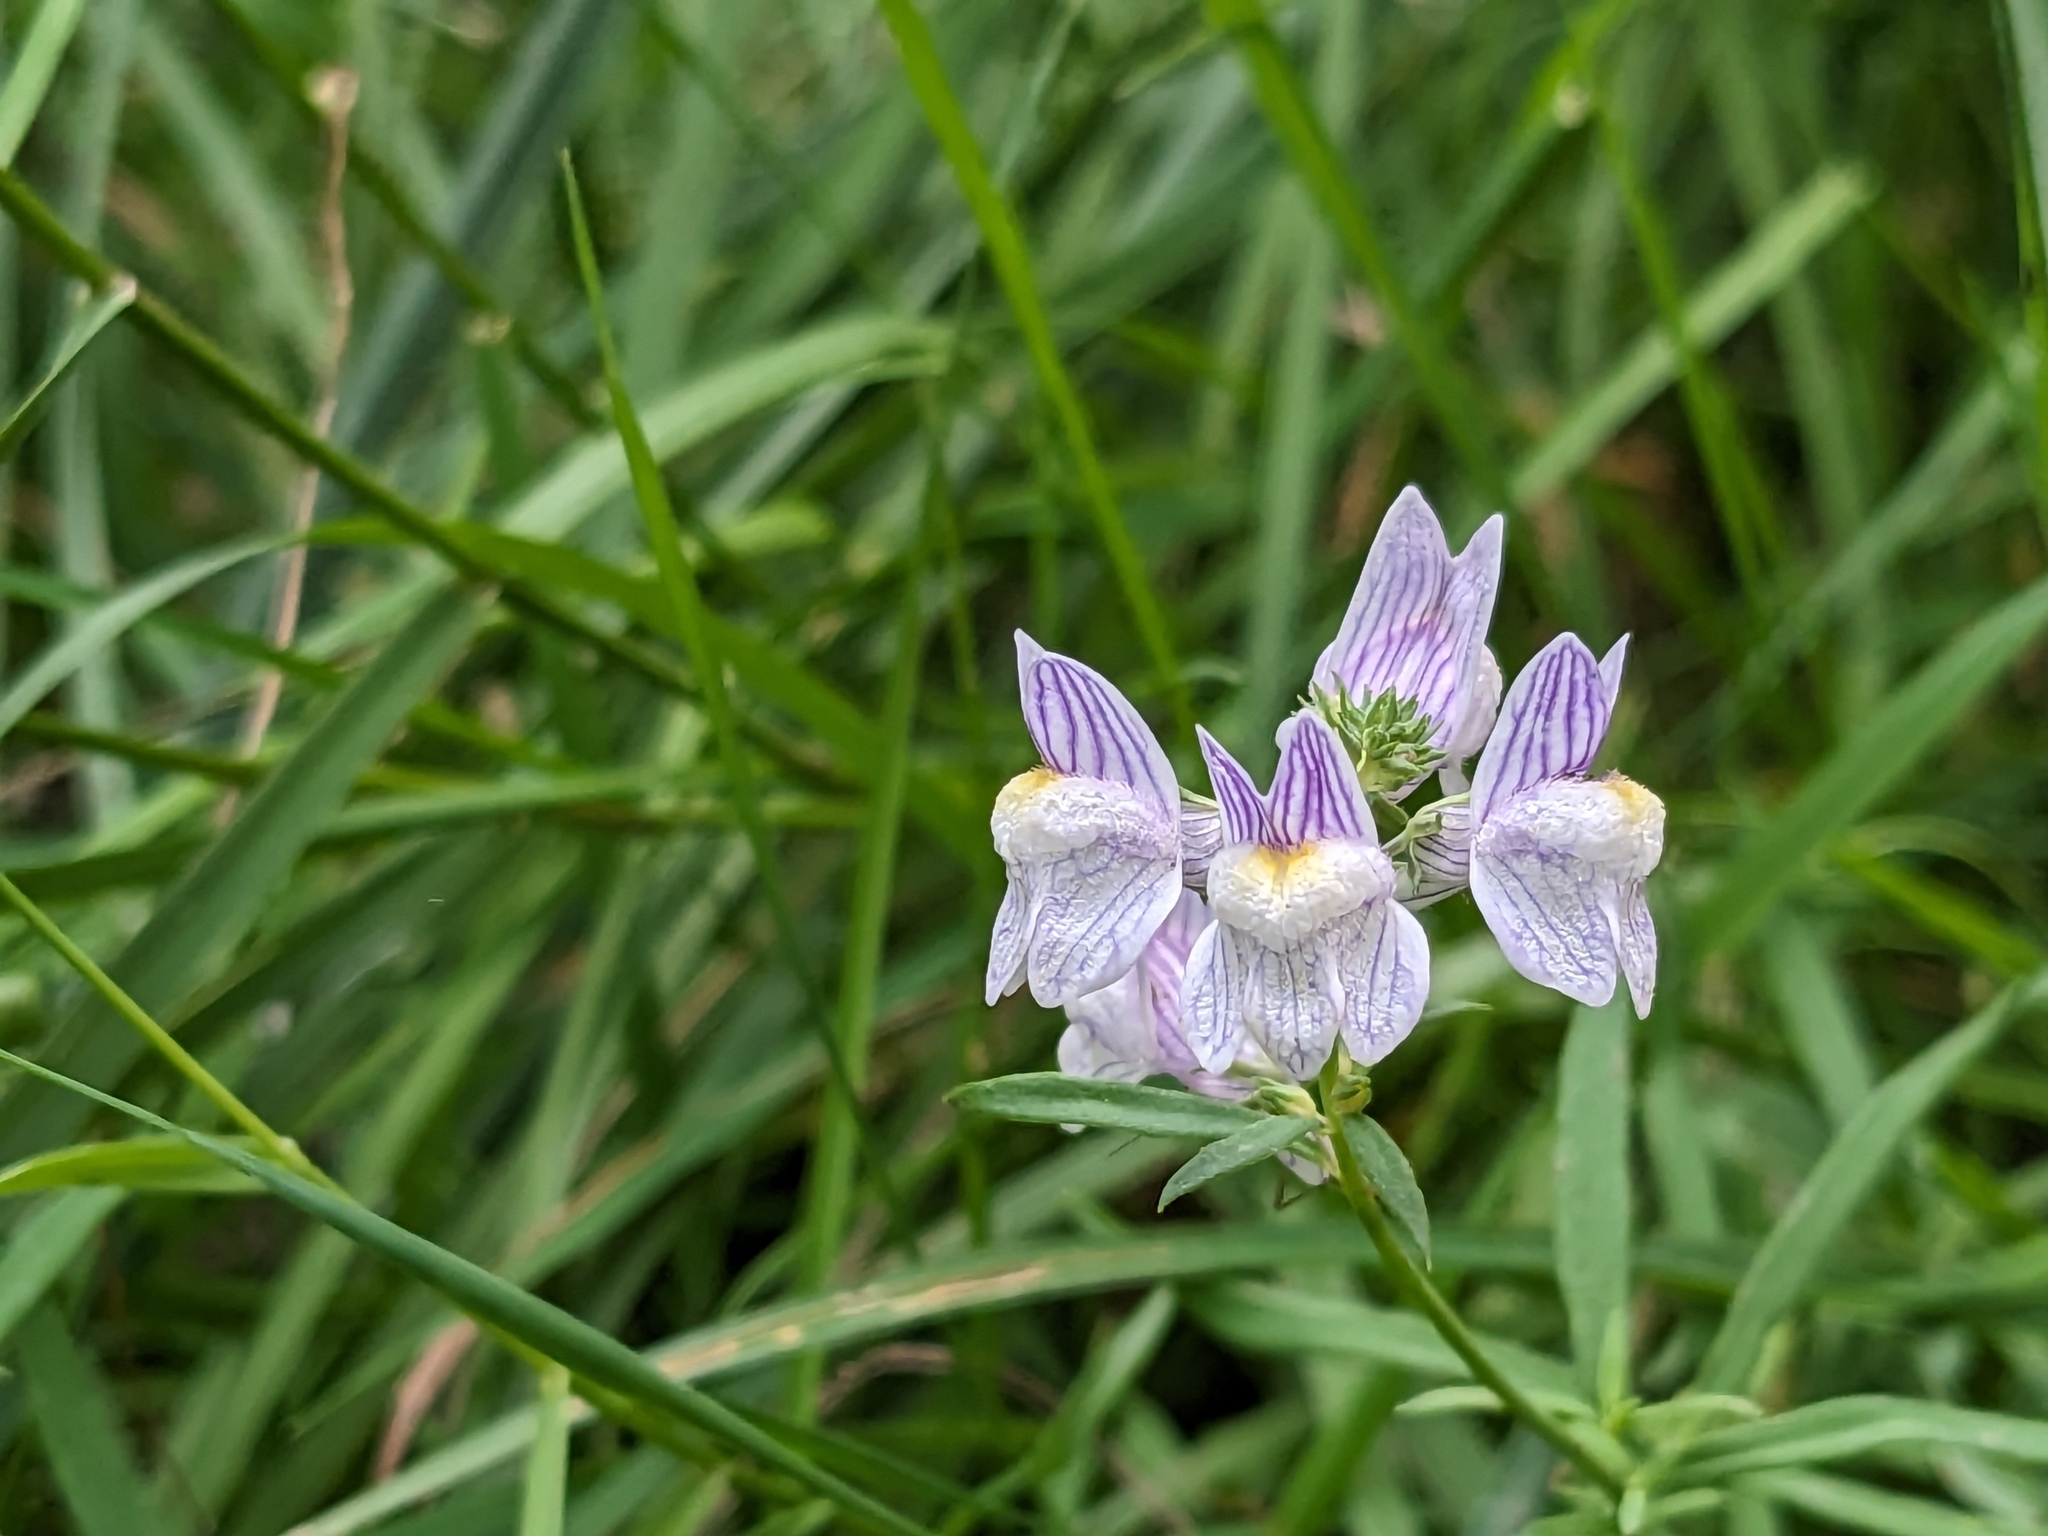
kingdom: Plantae
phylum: Tracheophyta
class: Magnoliopsida
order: Lamiales
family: Plantaginaceae
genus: Linaria
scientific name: Linaria repens
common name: Pale toadflax
